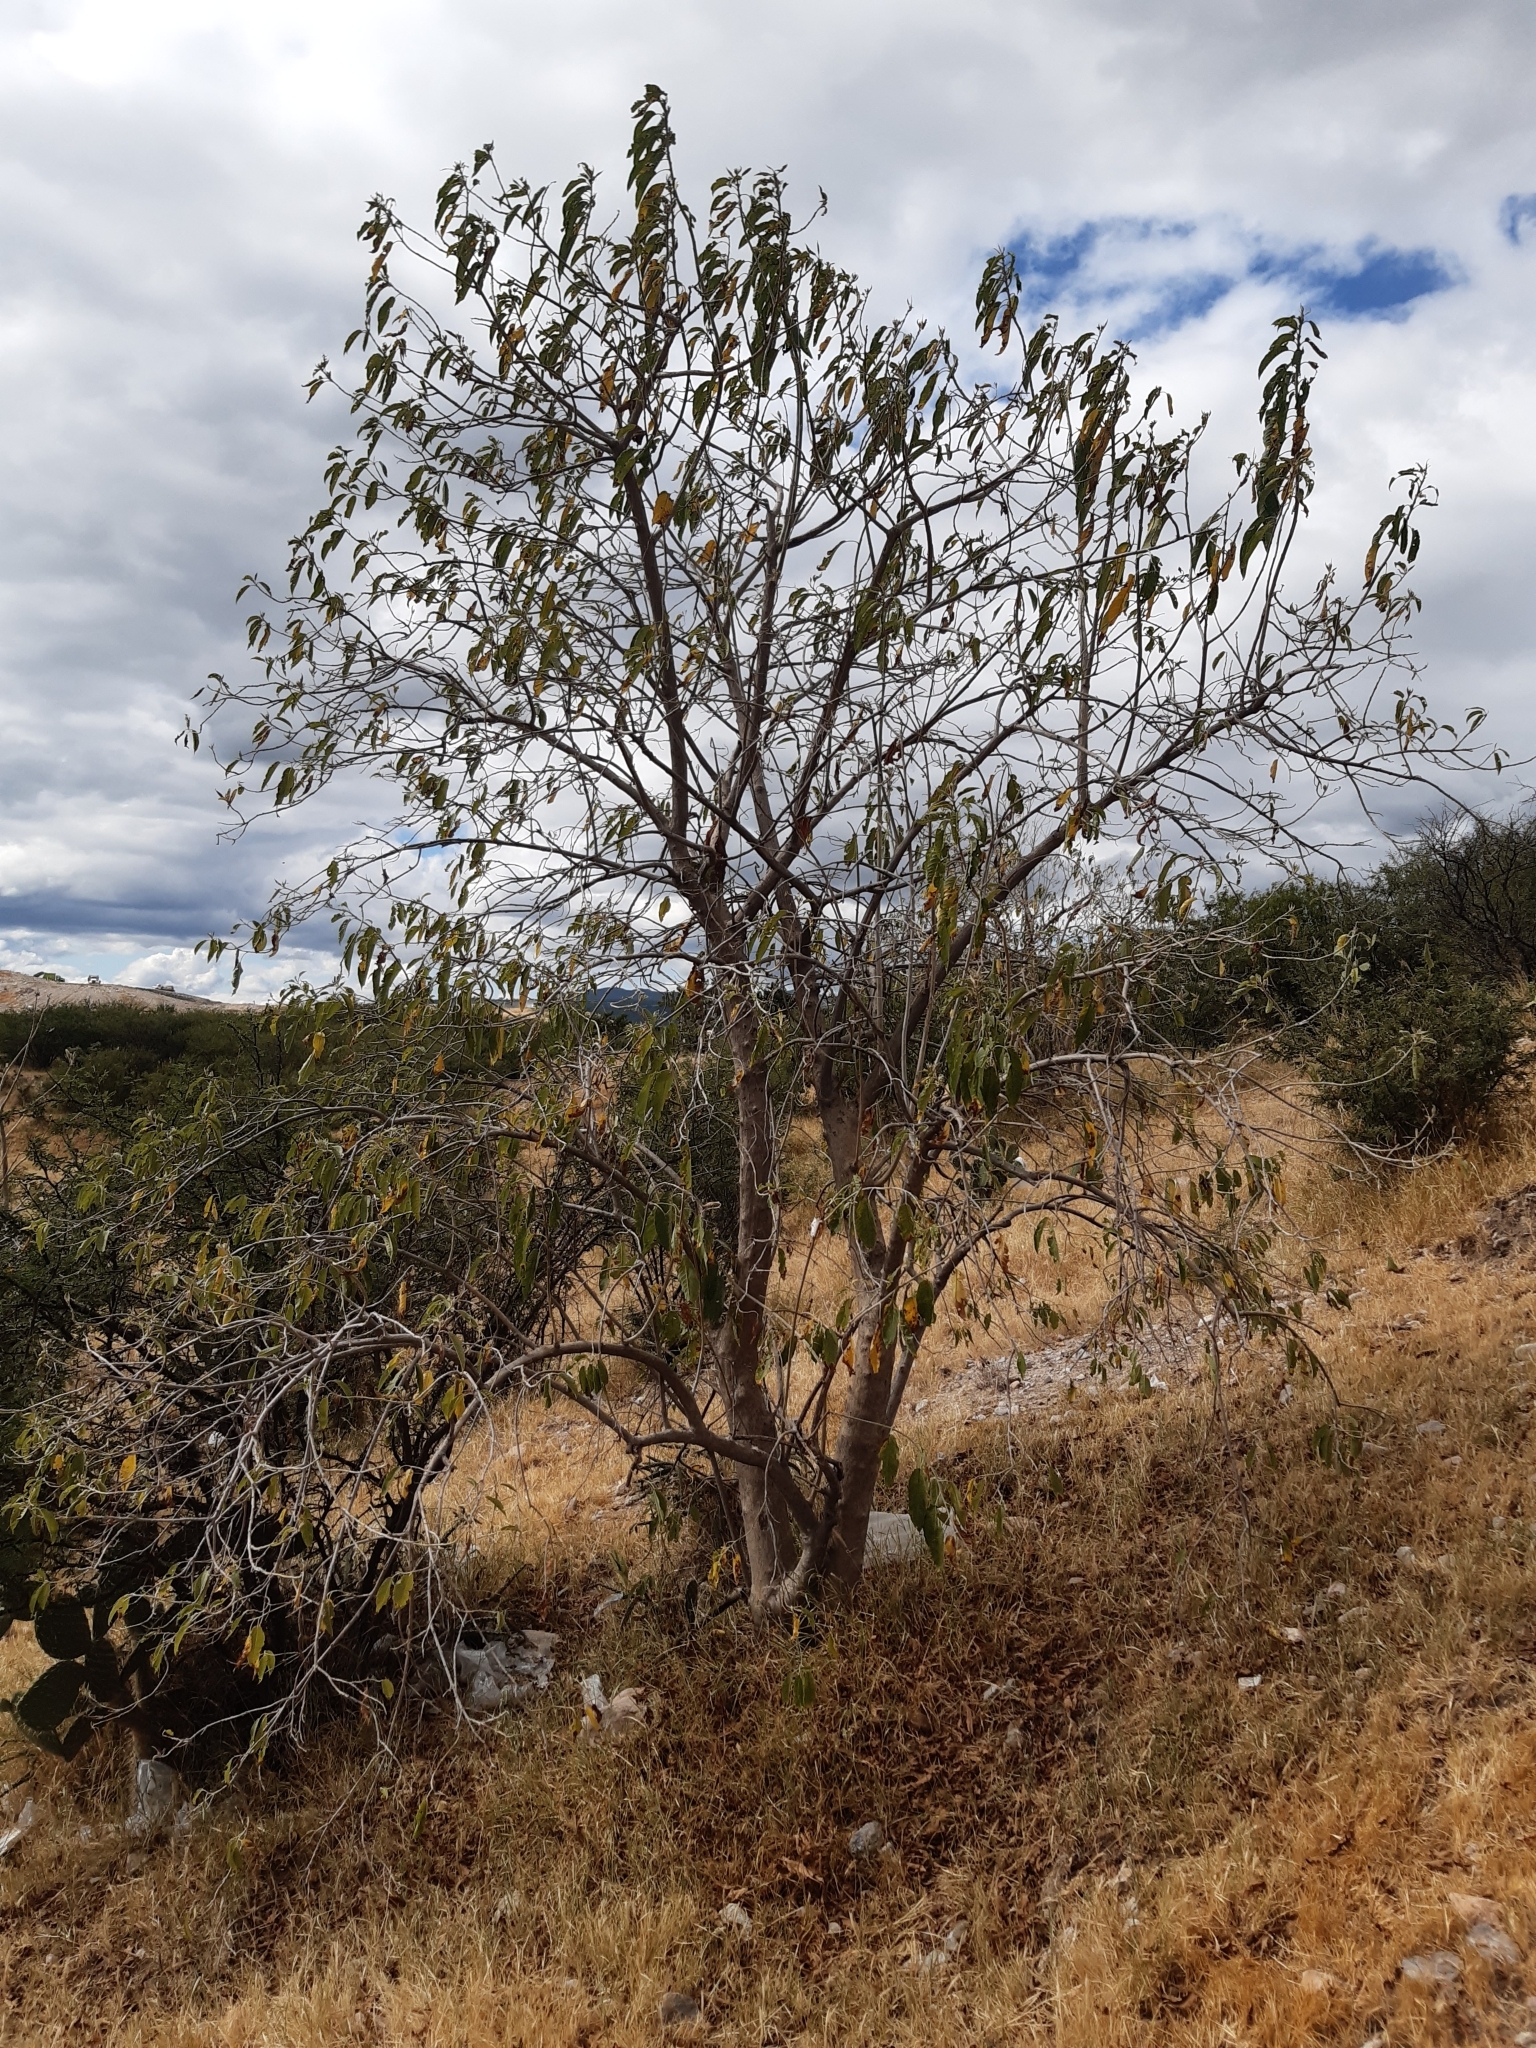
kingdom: Plantae
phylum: Tracheophyta
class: Magnoliopsida
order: Solanales
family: Convolvulaceae
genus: Ipomoea
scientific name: Ipomoea murucoides
